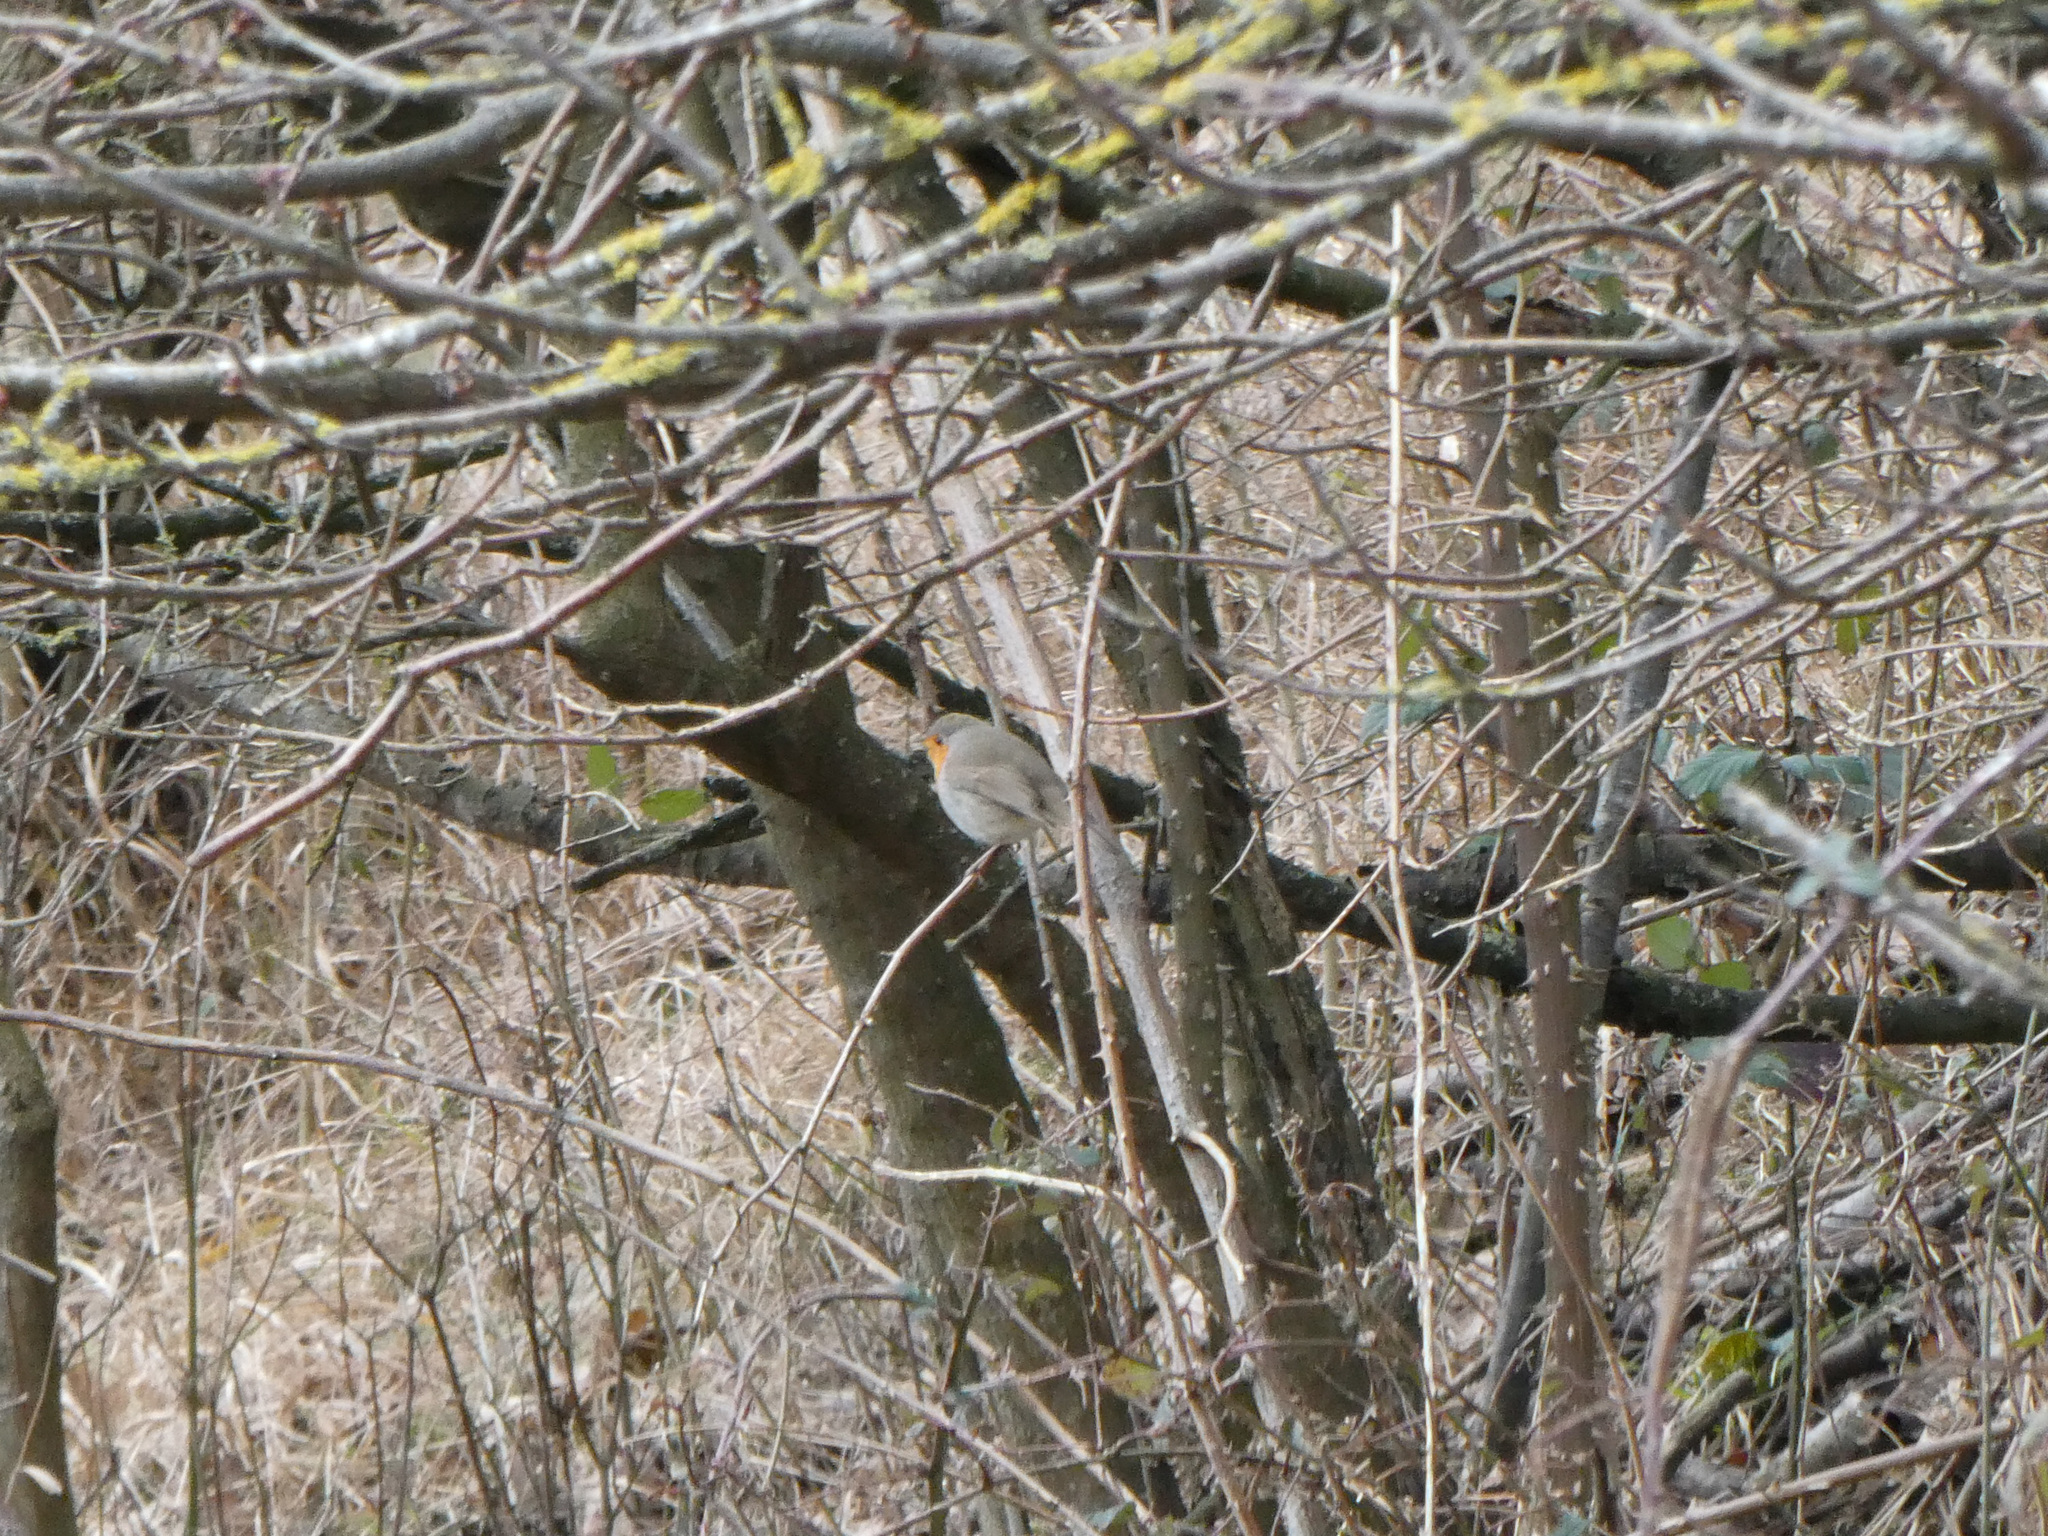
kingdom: Animalia
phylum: Chordata
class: Aves
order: Passeriformes
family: Muscicapidae
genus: Erithacus
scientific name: Erithacus rubecula
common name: European robin
